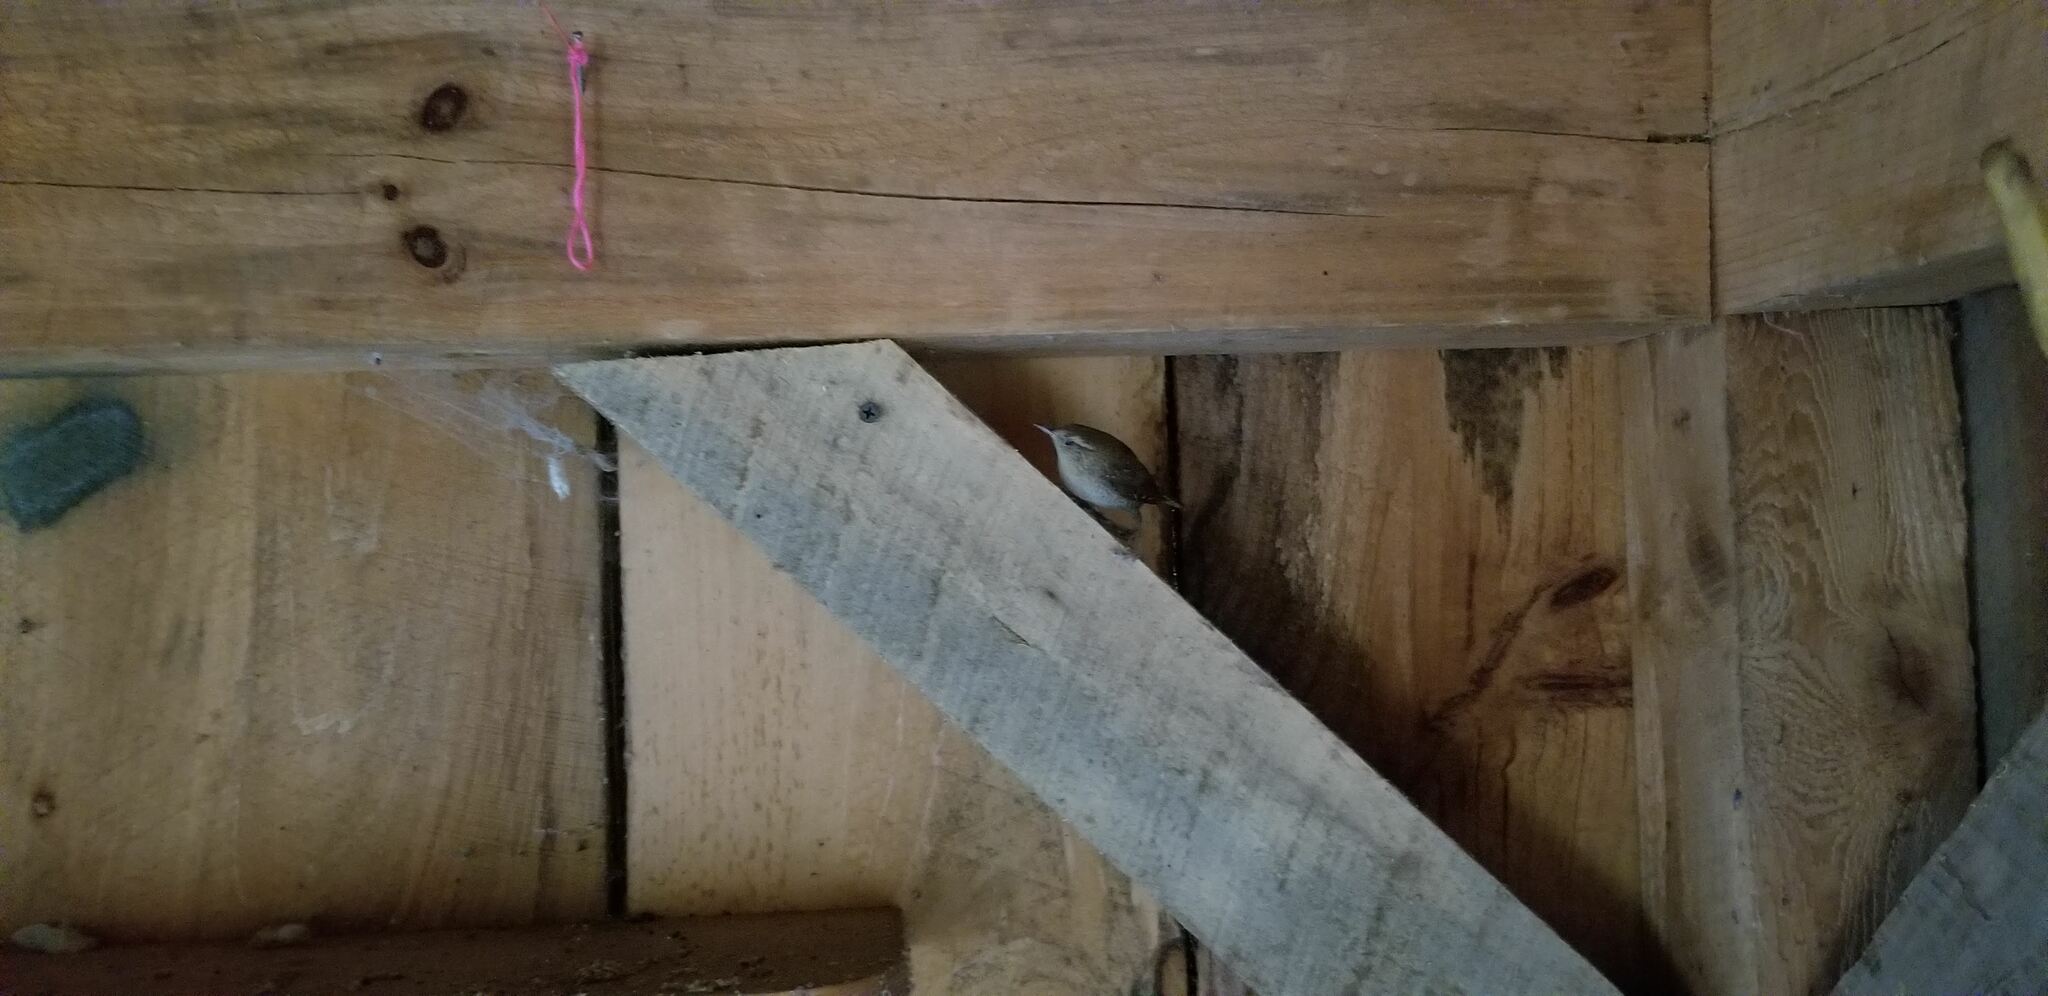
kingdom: Animalia
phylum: Chordata
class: Aves
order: Passeriformes
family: Troglodytidae
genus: Troglodytes
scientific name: Troglodytes hiemalis
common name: Winter wren
